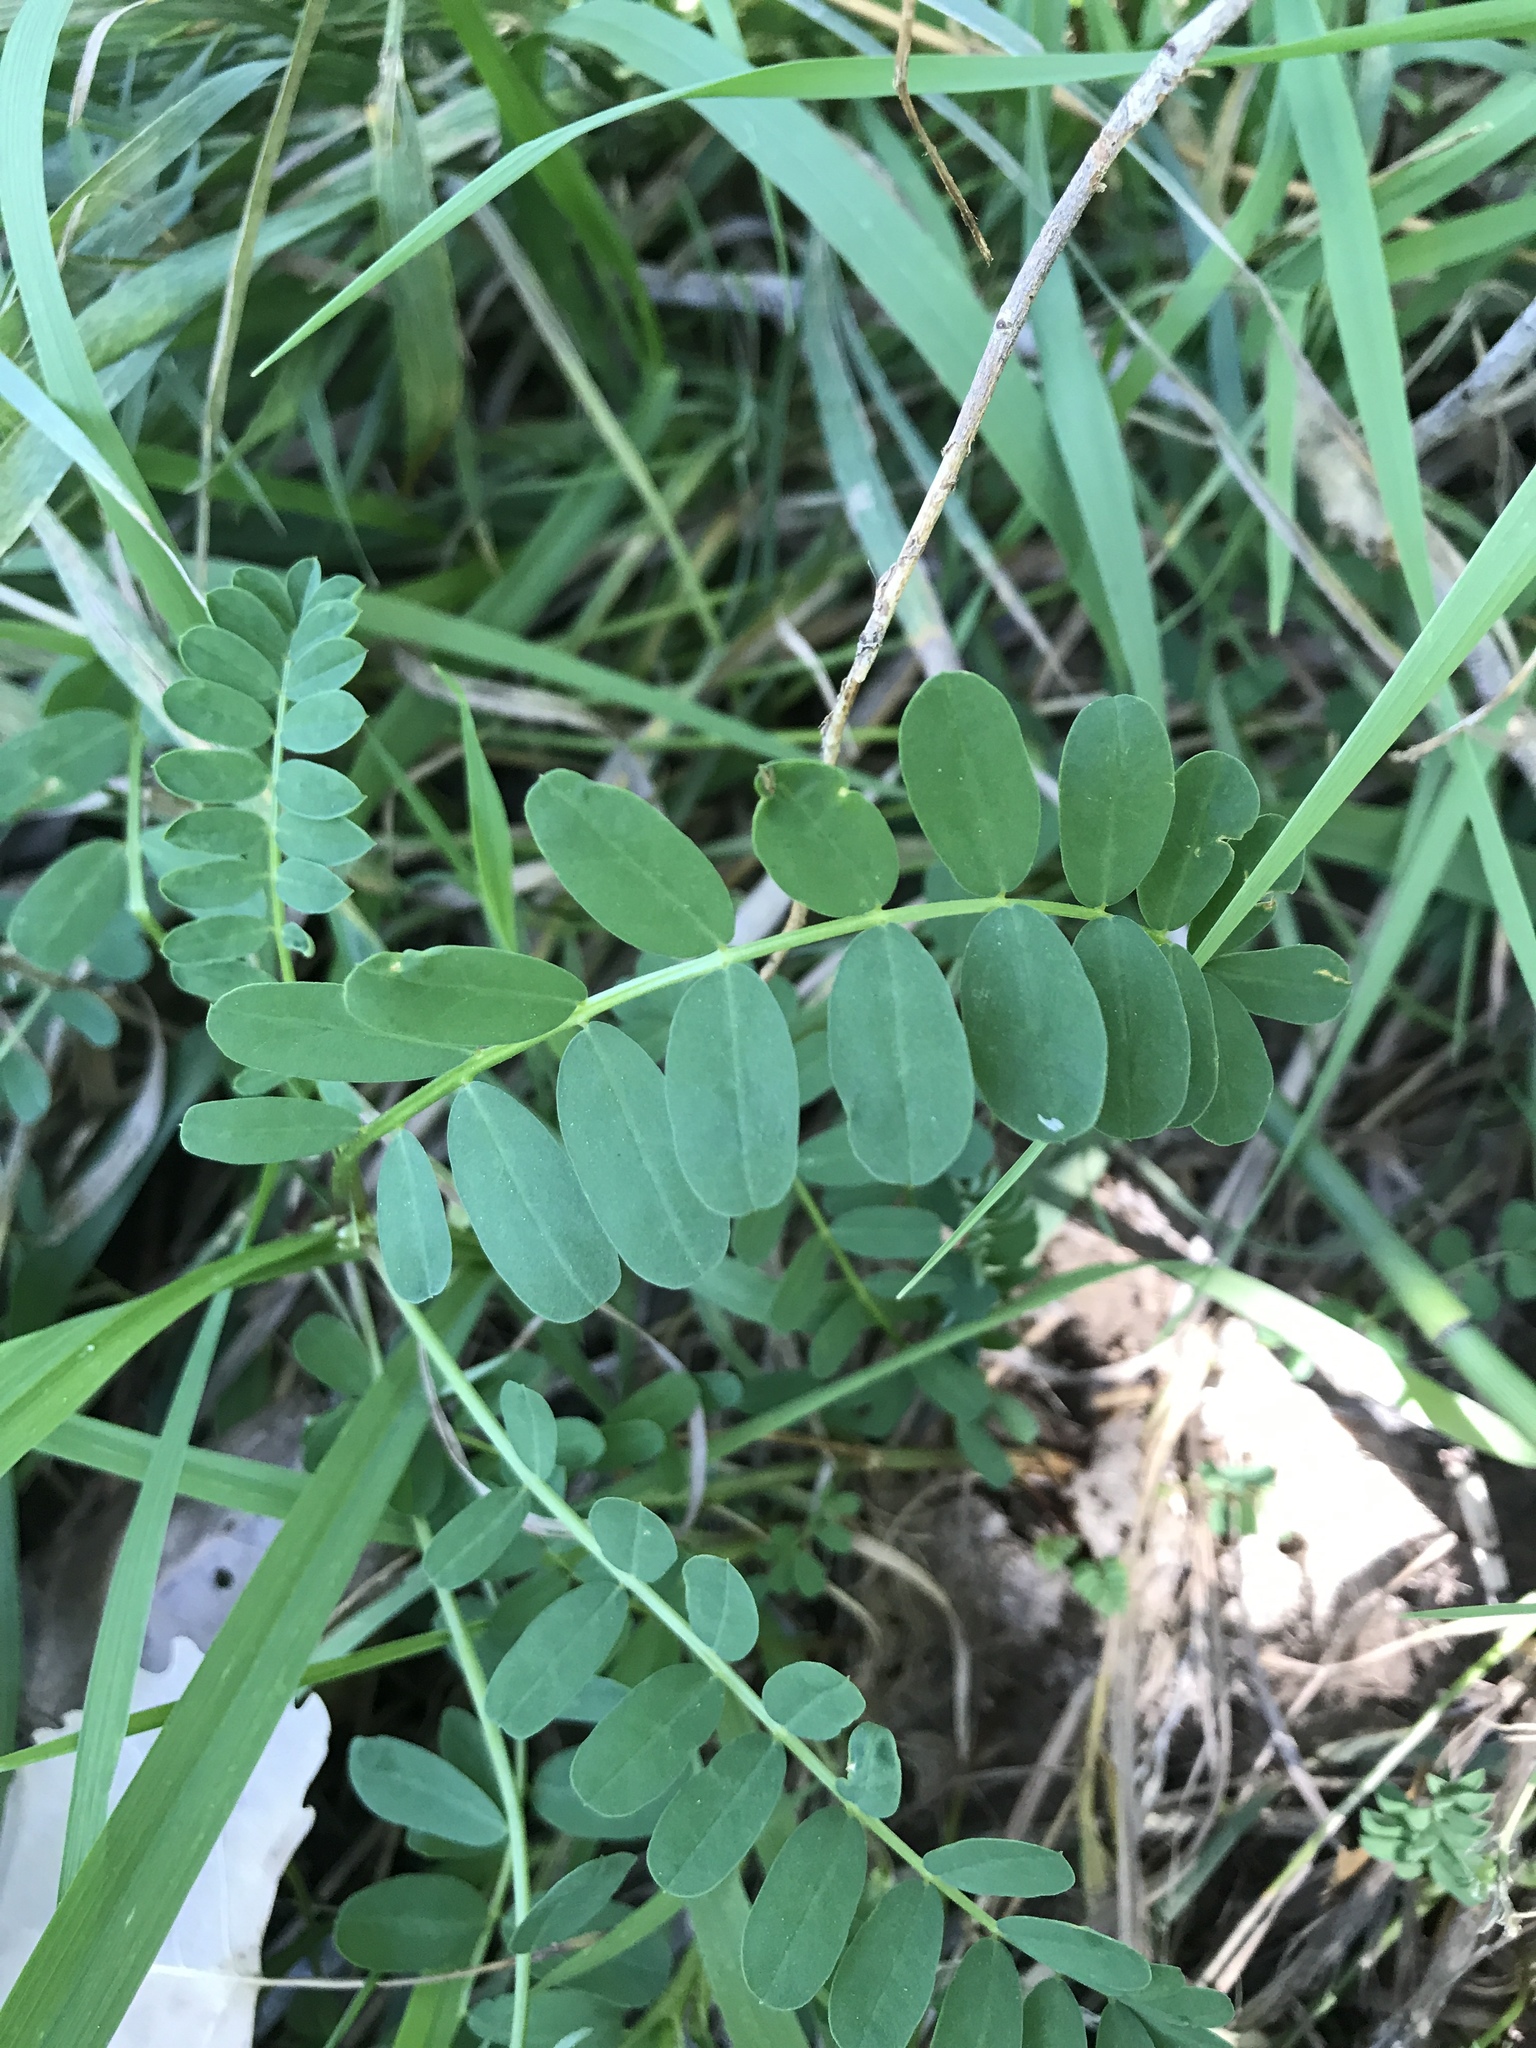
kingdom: Plantae
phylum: Tracheophyta
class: Magnoliopsida
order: Fabales
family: Fabaceae
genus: Coronilla
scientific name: Coronilla varia
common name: Crownvetch
